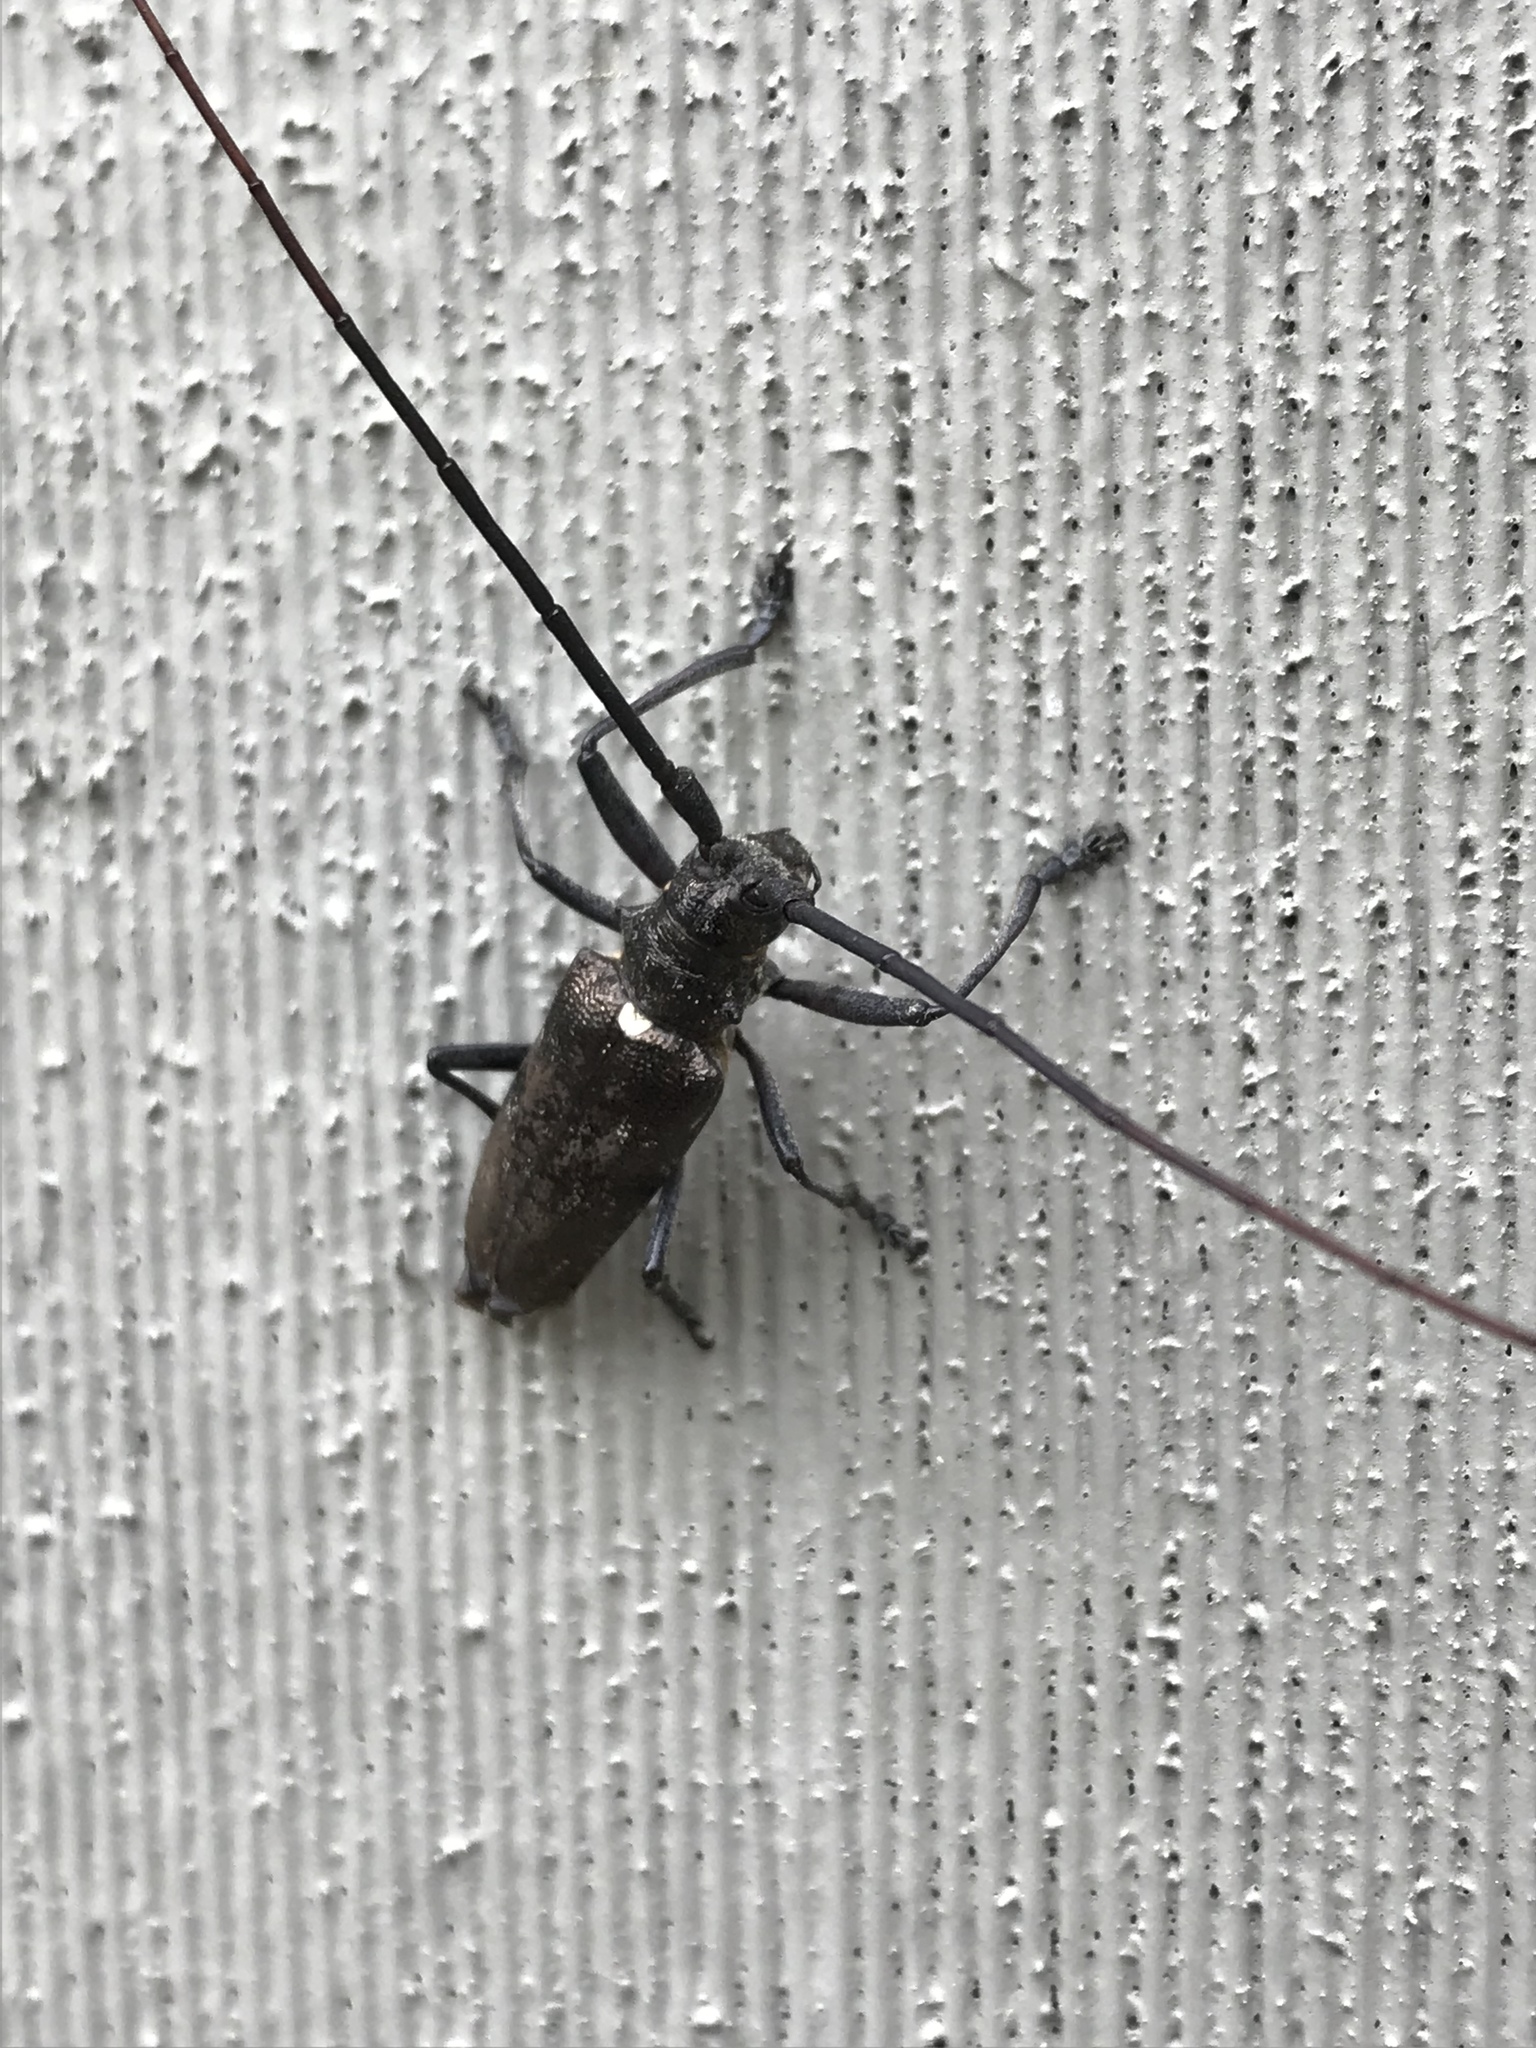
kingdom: Animalia
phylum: Arthropoda
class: Insecta
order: Coleoptera
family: Cerambycidae
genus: Monochamus
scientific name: Monochamus scutellatus
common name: White-spotted sawyer beetle
